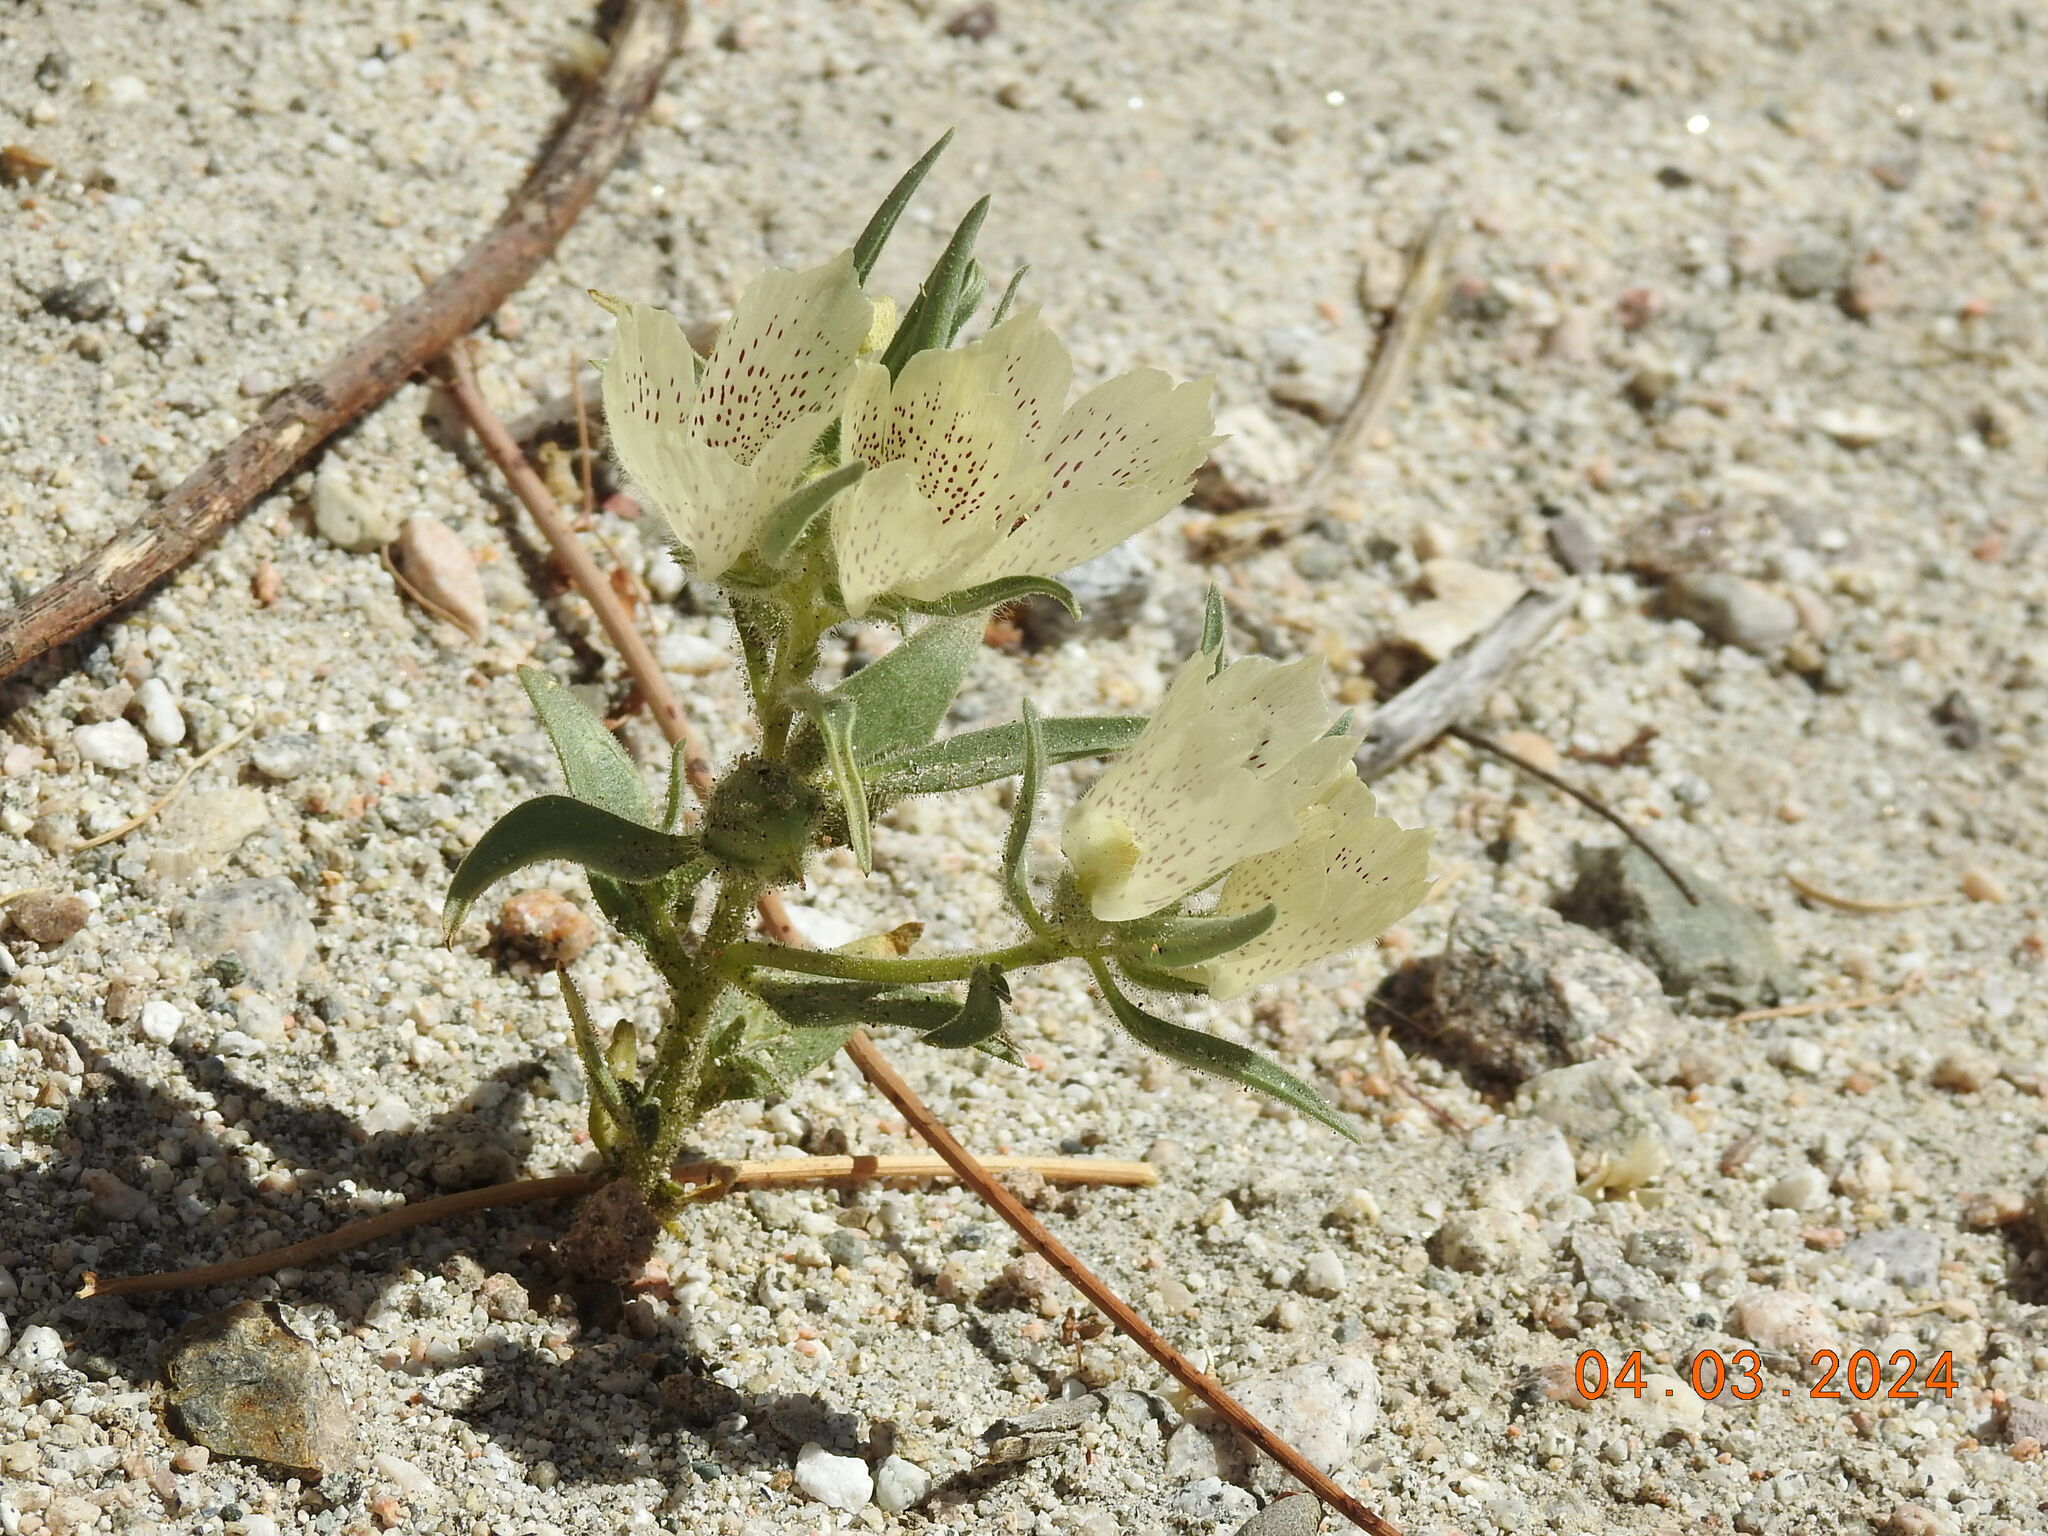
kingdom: Plantae
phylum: Tracheophyta
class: Magnoliopsida
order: Lamiales
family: Plantaginaceae
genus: Mohavea
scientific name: Mohavea confertiflora
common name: Ghost flower
